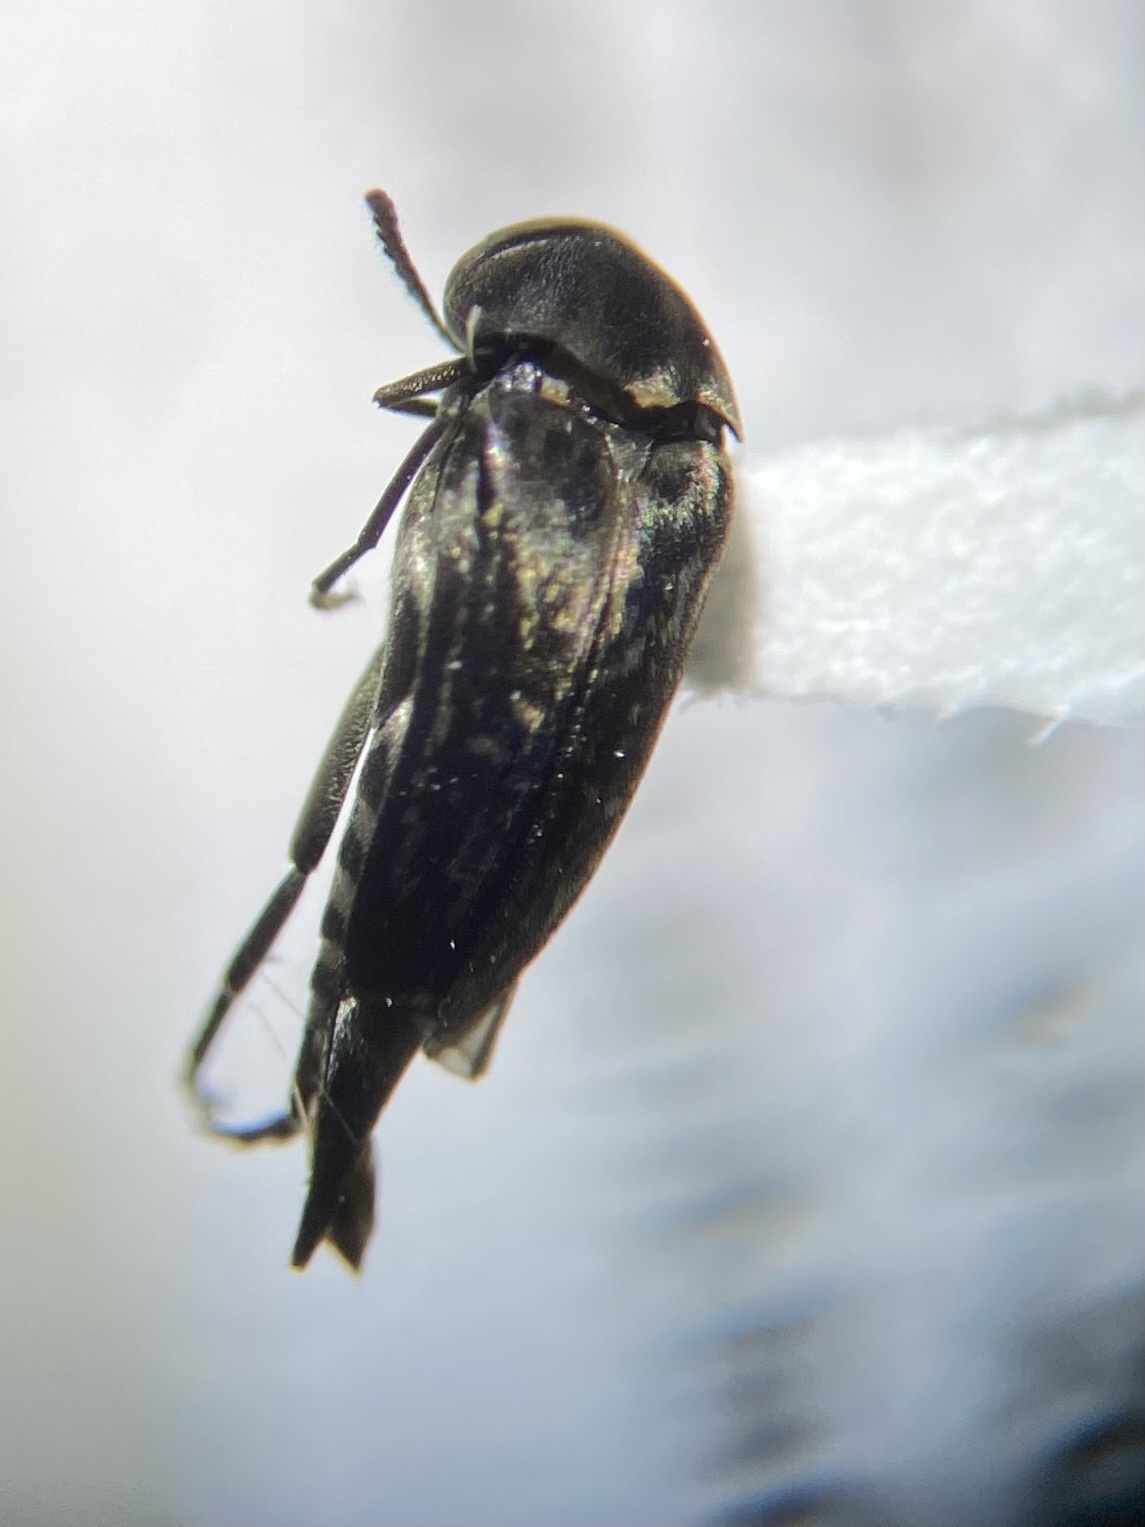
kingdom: Animalia
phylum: Arthropoda
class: Insecta
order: Coleoptera
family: Mordellidae
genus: Mordella
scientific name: Mordella marginata
